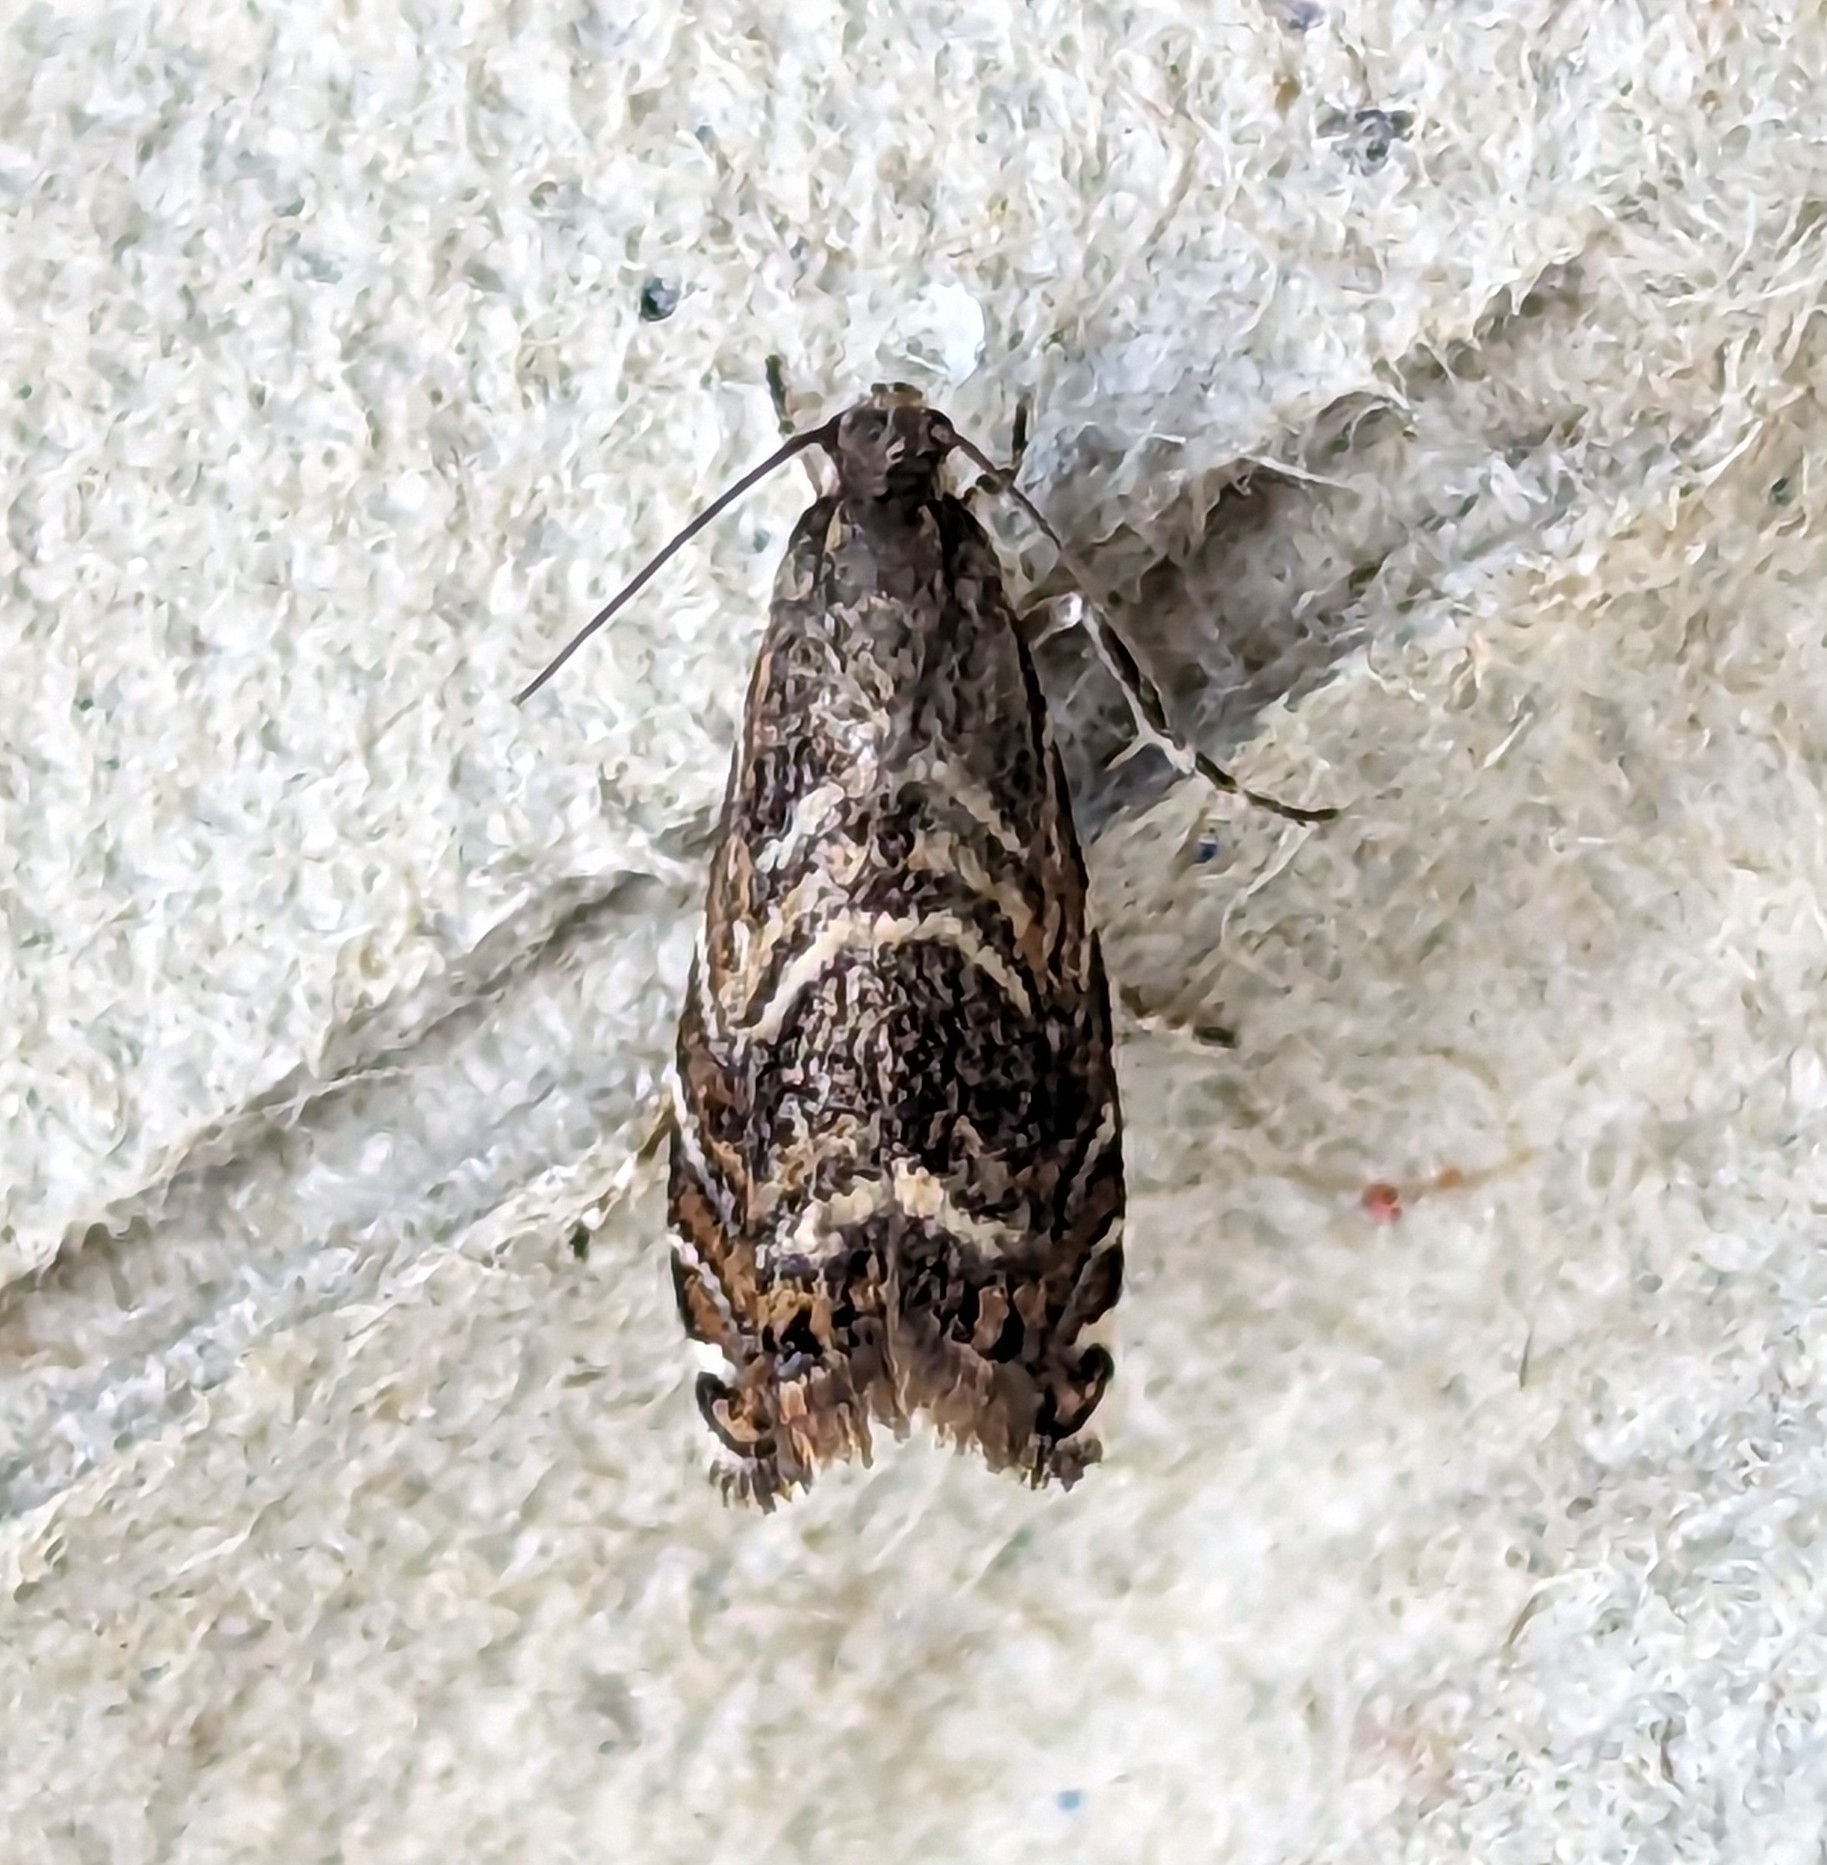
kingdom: Animalia
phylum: Arthropoda
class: Insecta
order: Lepidoptera
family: Tortricidae
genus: Thaumatographa
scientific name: Thaumatographa youngiella
